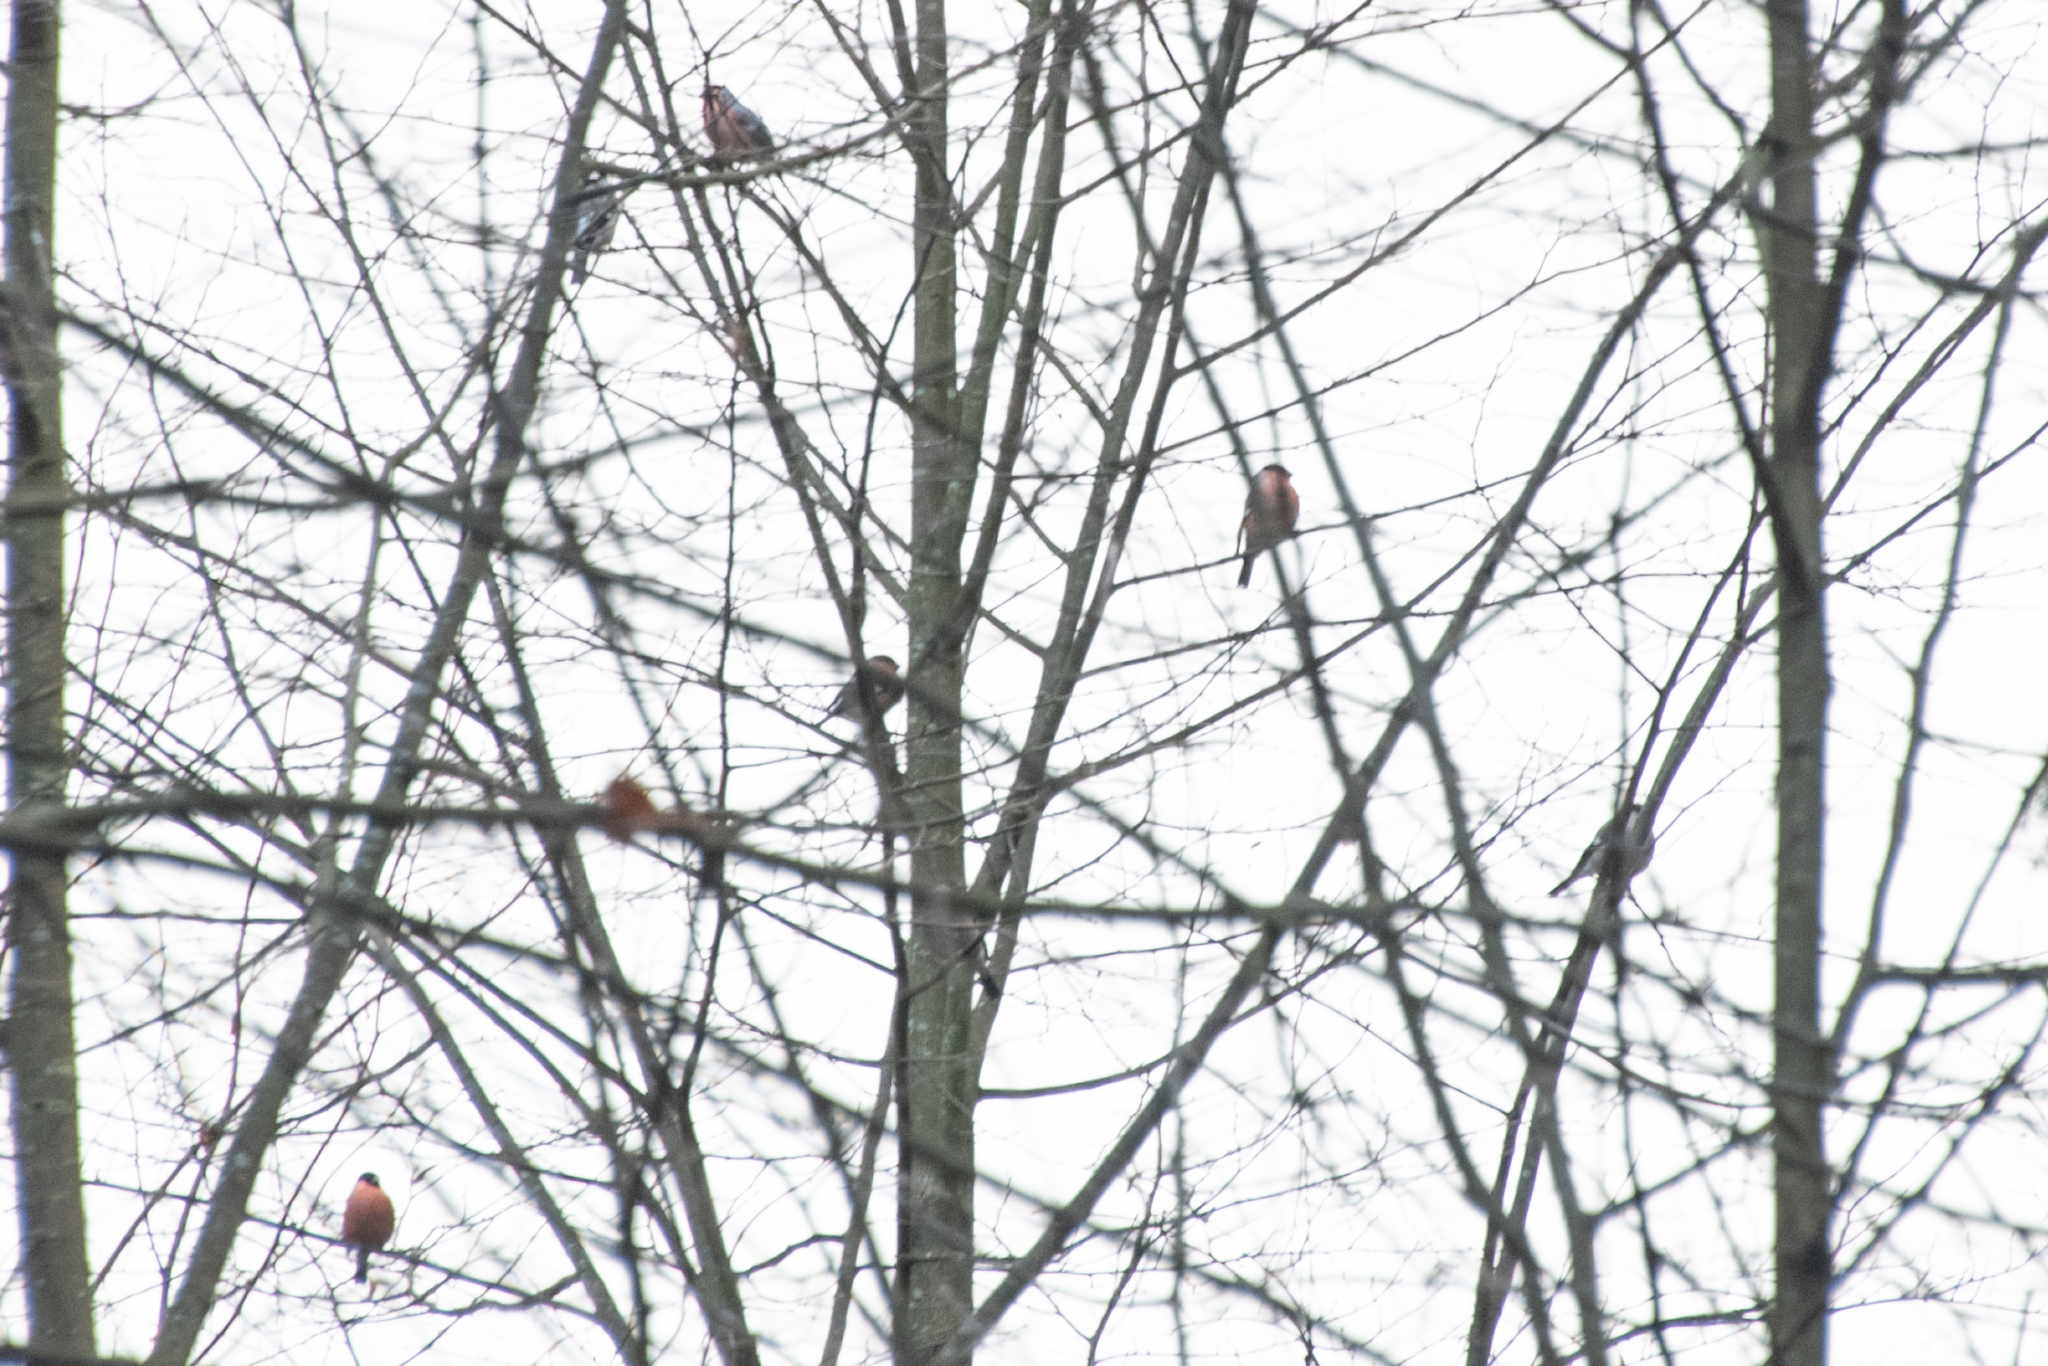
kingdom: Animalia
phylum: Chordata
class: Aves
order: Passeriformes
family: Fringillidae
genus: Pyrrhula
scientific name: Pyrrhula pyrrhula
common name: Eurasian bullfinch
